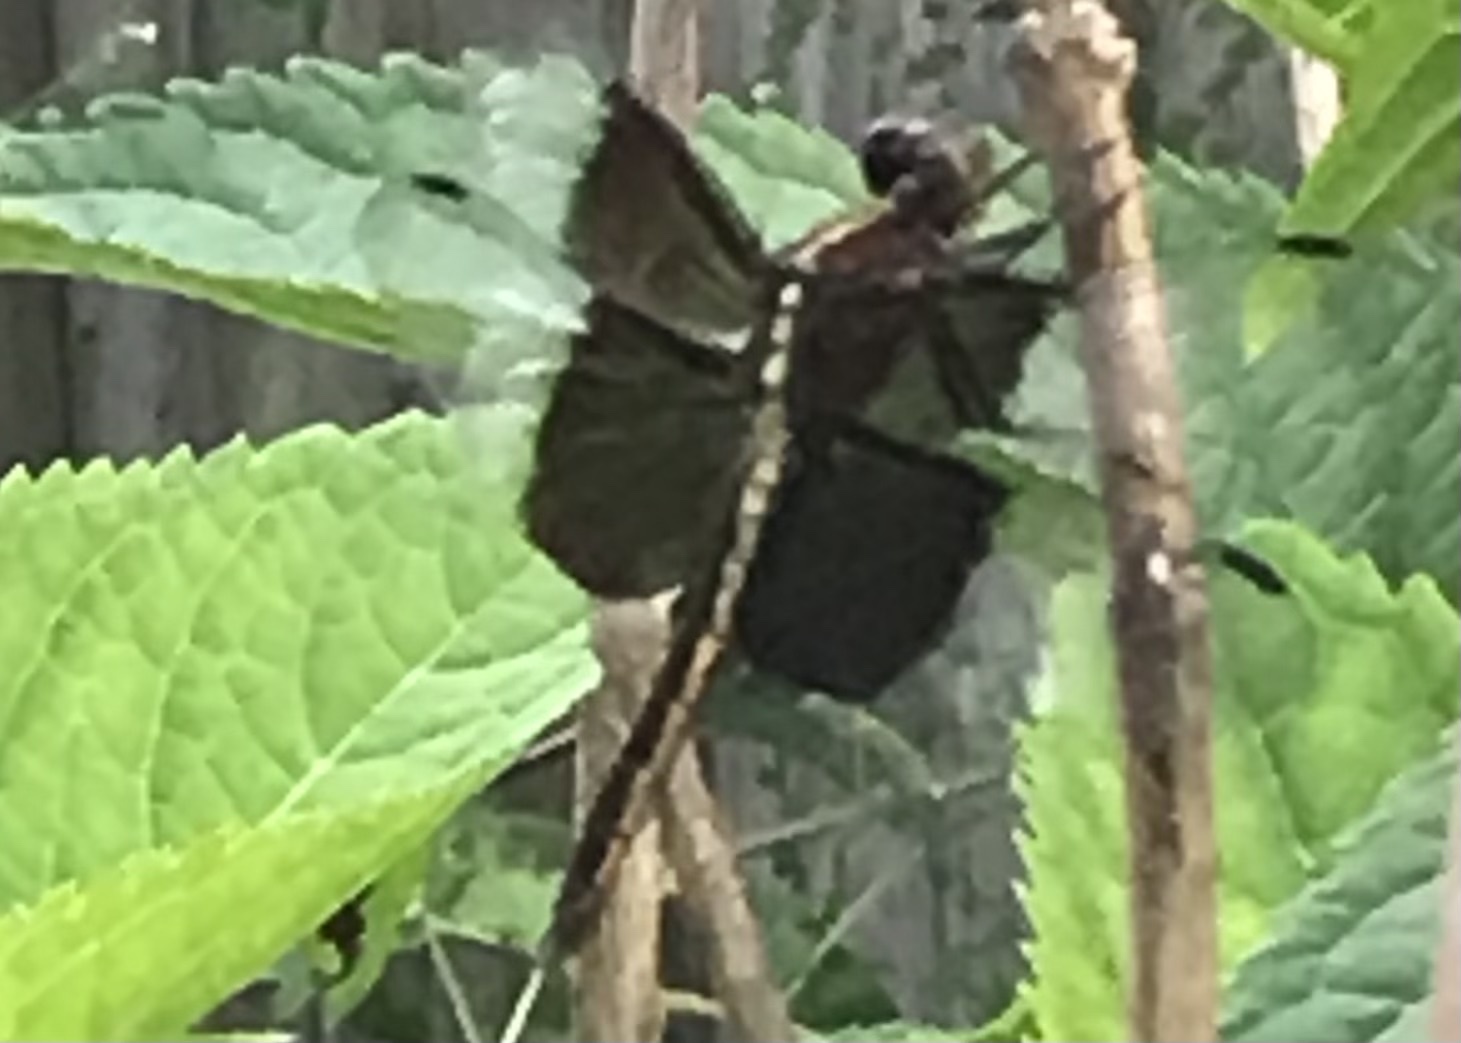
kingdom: Animalia
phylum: Arthropoda
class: Insecta
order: Odonata
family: Libellulidae
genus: Libellula
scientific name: Libellula luctuosa
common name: Widow skimmer
